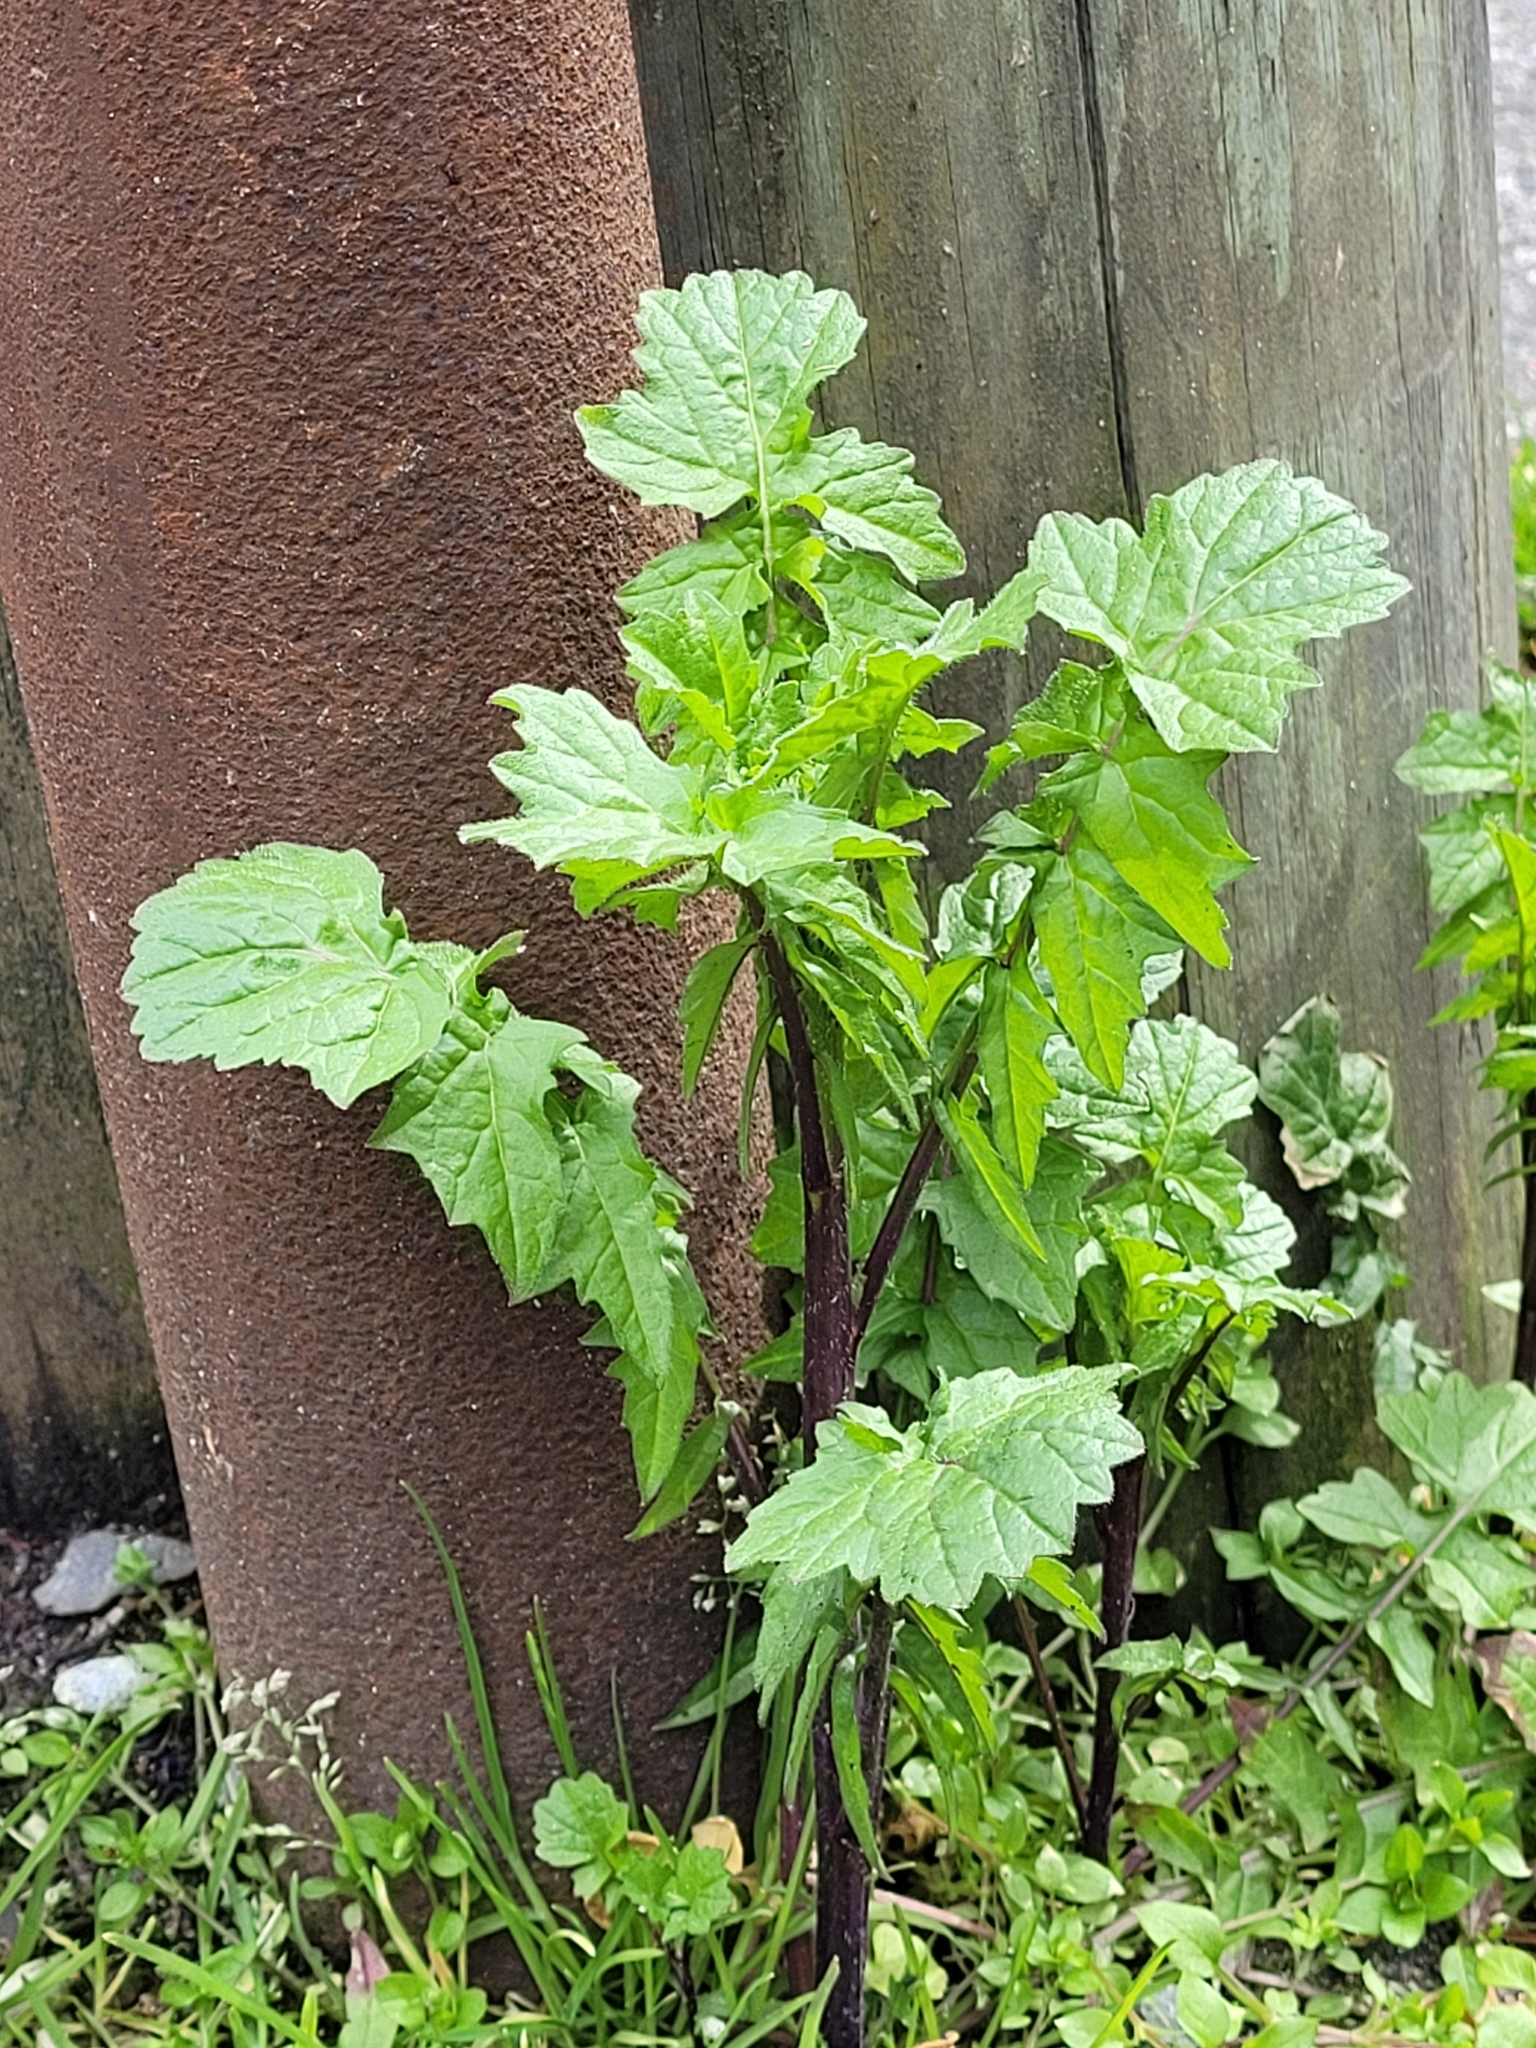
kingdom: Plantae
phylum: Tracheophyta
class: Magnoliopsida
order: Brassicales
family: Brassicaceae
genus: Sisymbrium
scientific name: Sisymbrium officinale
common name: Hedge mustard
